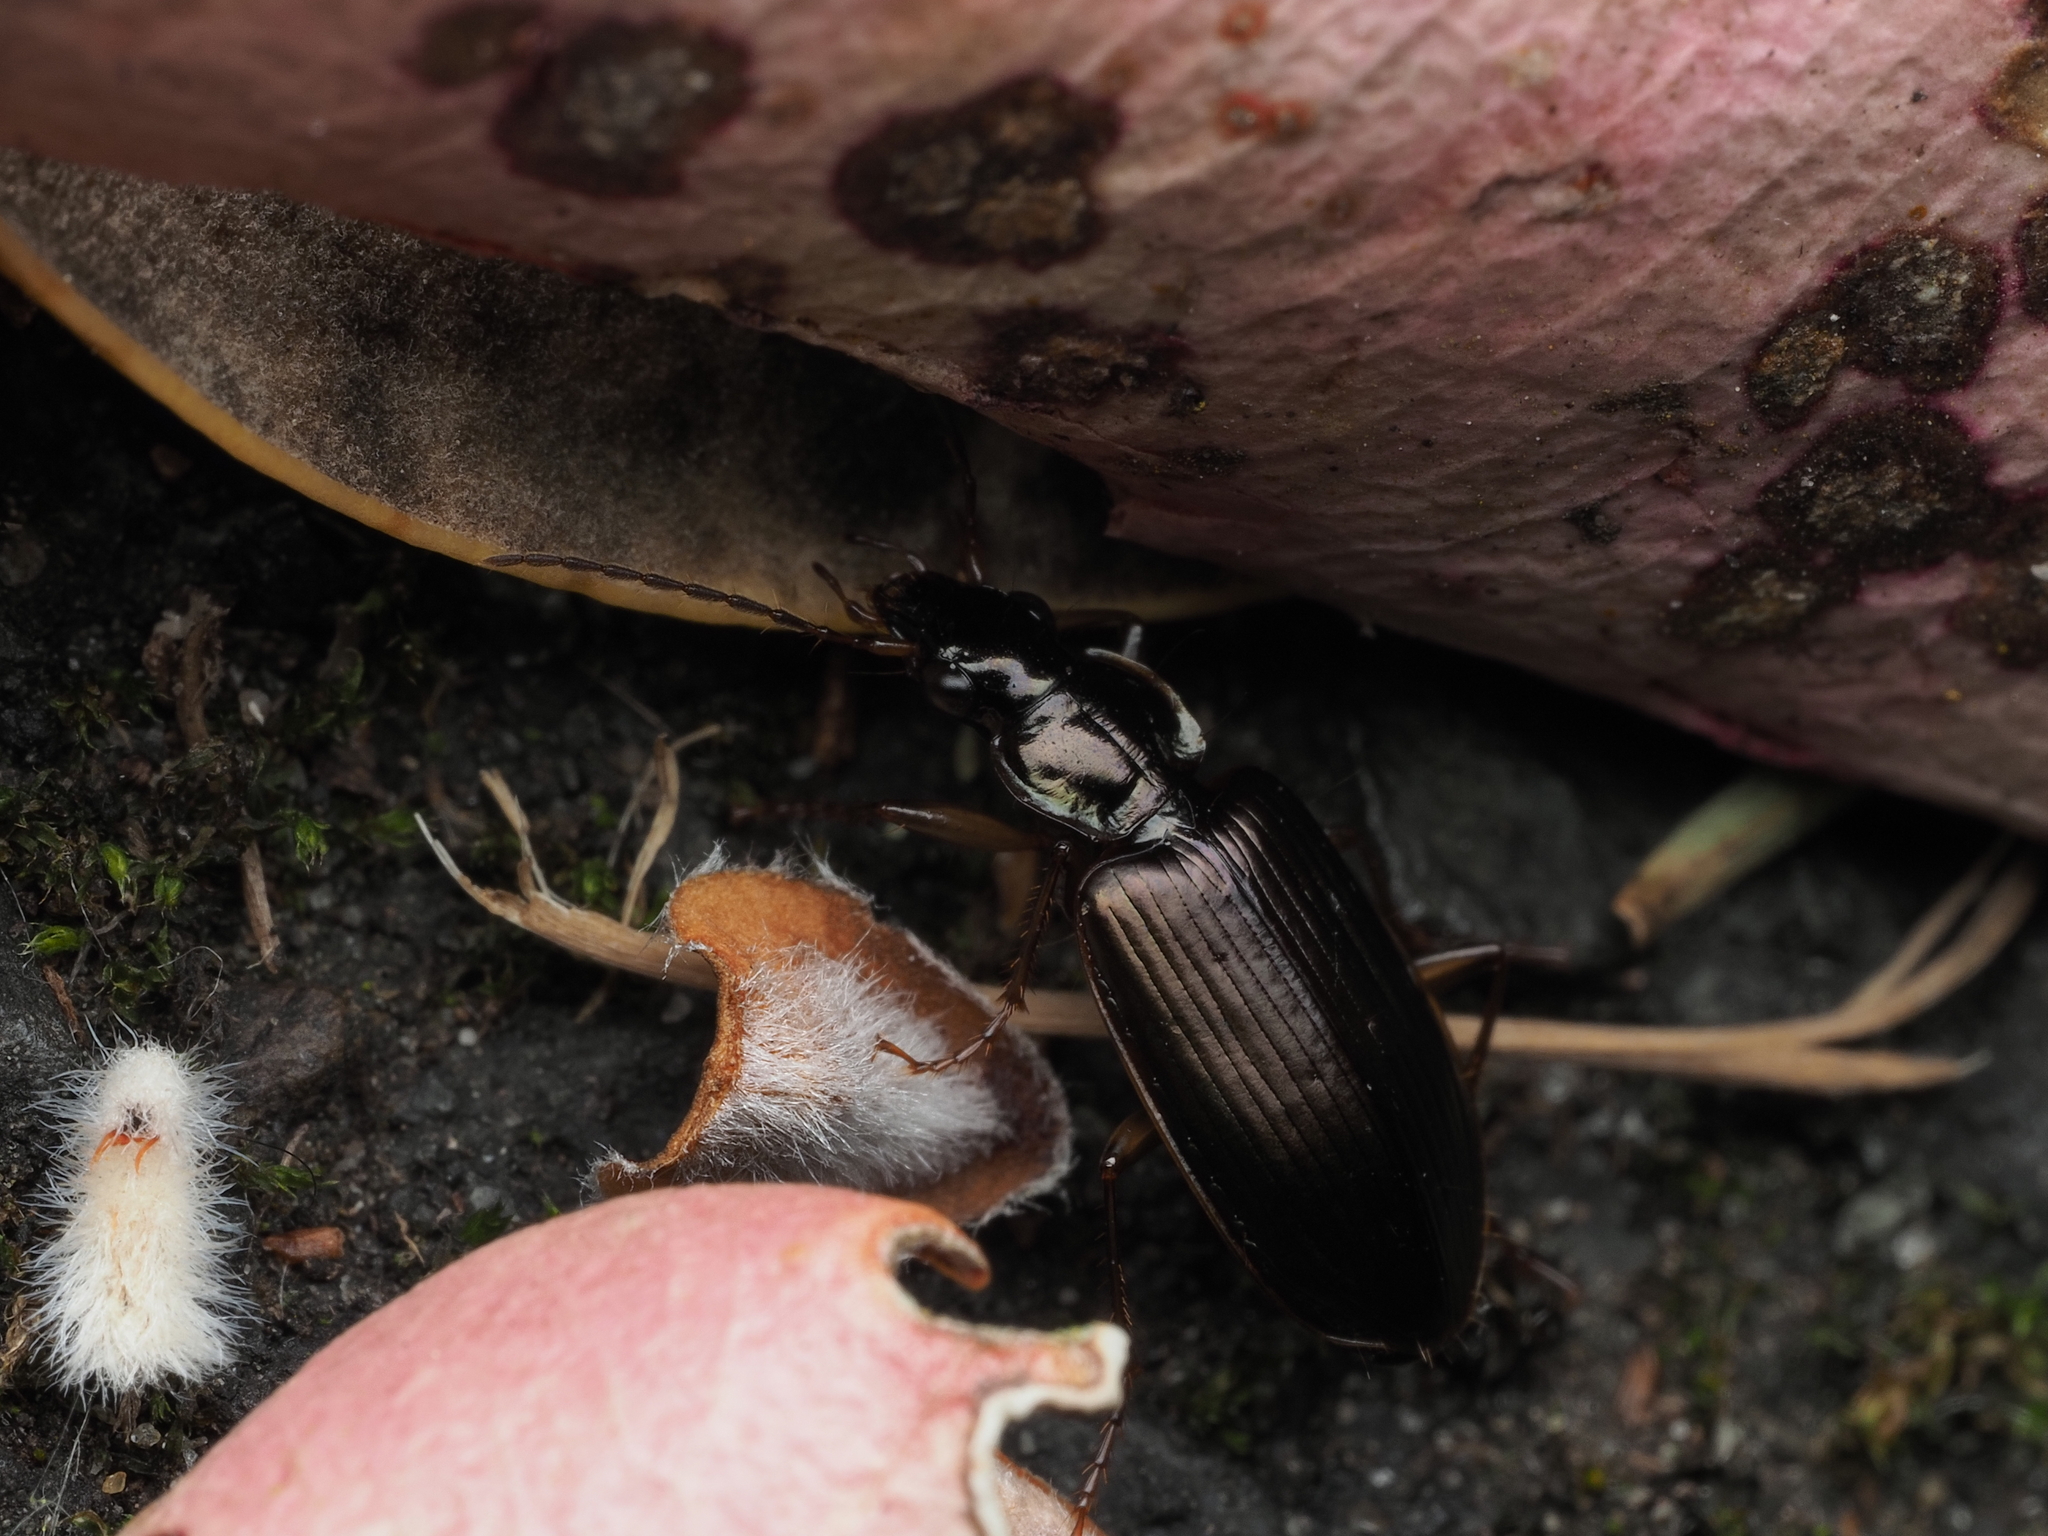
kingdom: Animalia
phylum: Arthropoda
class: Insecta
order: Coleoptera
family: Carabidae
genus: Notagonum
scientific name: Notagonum submetallicum
